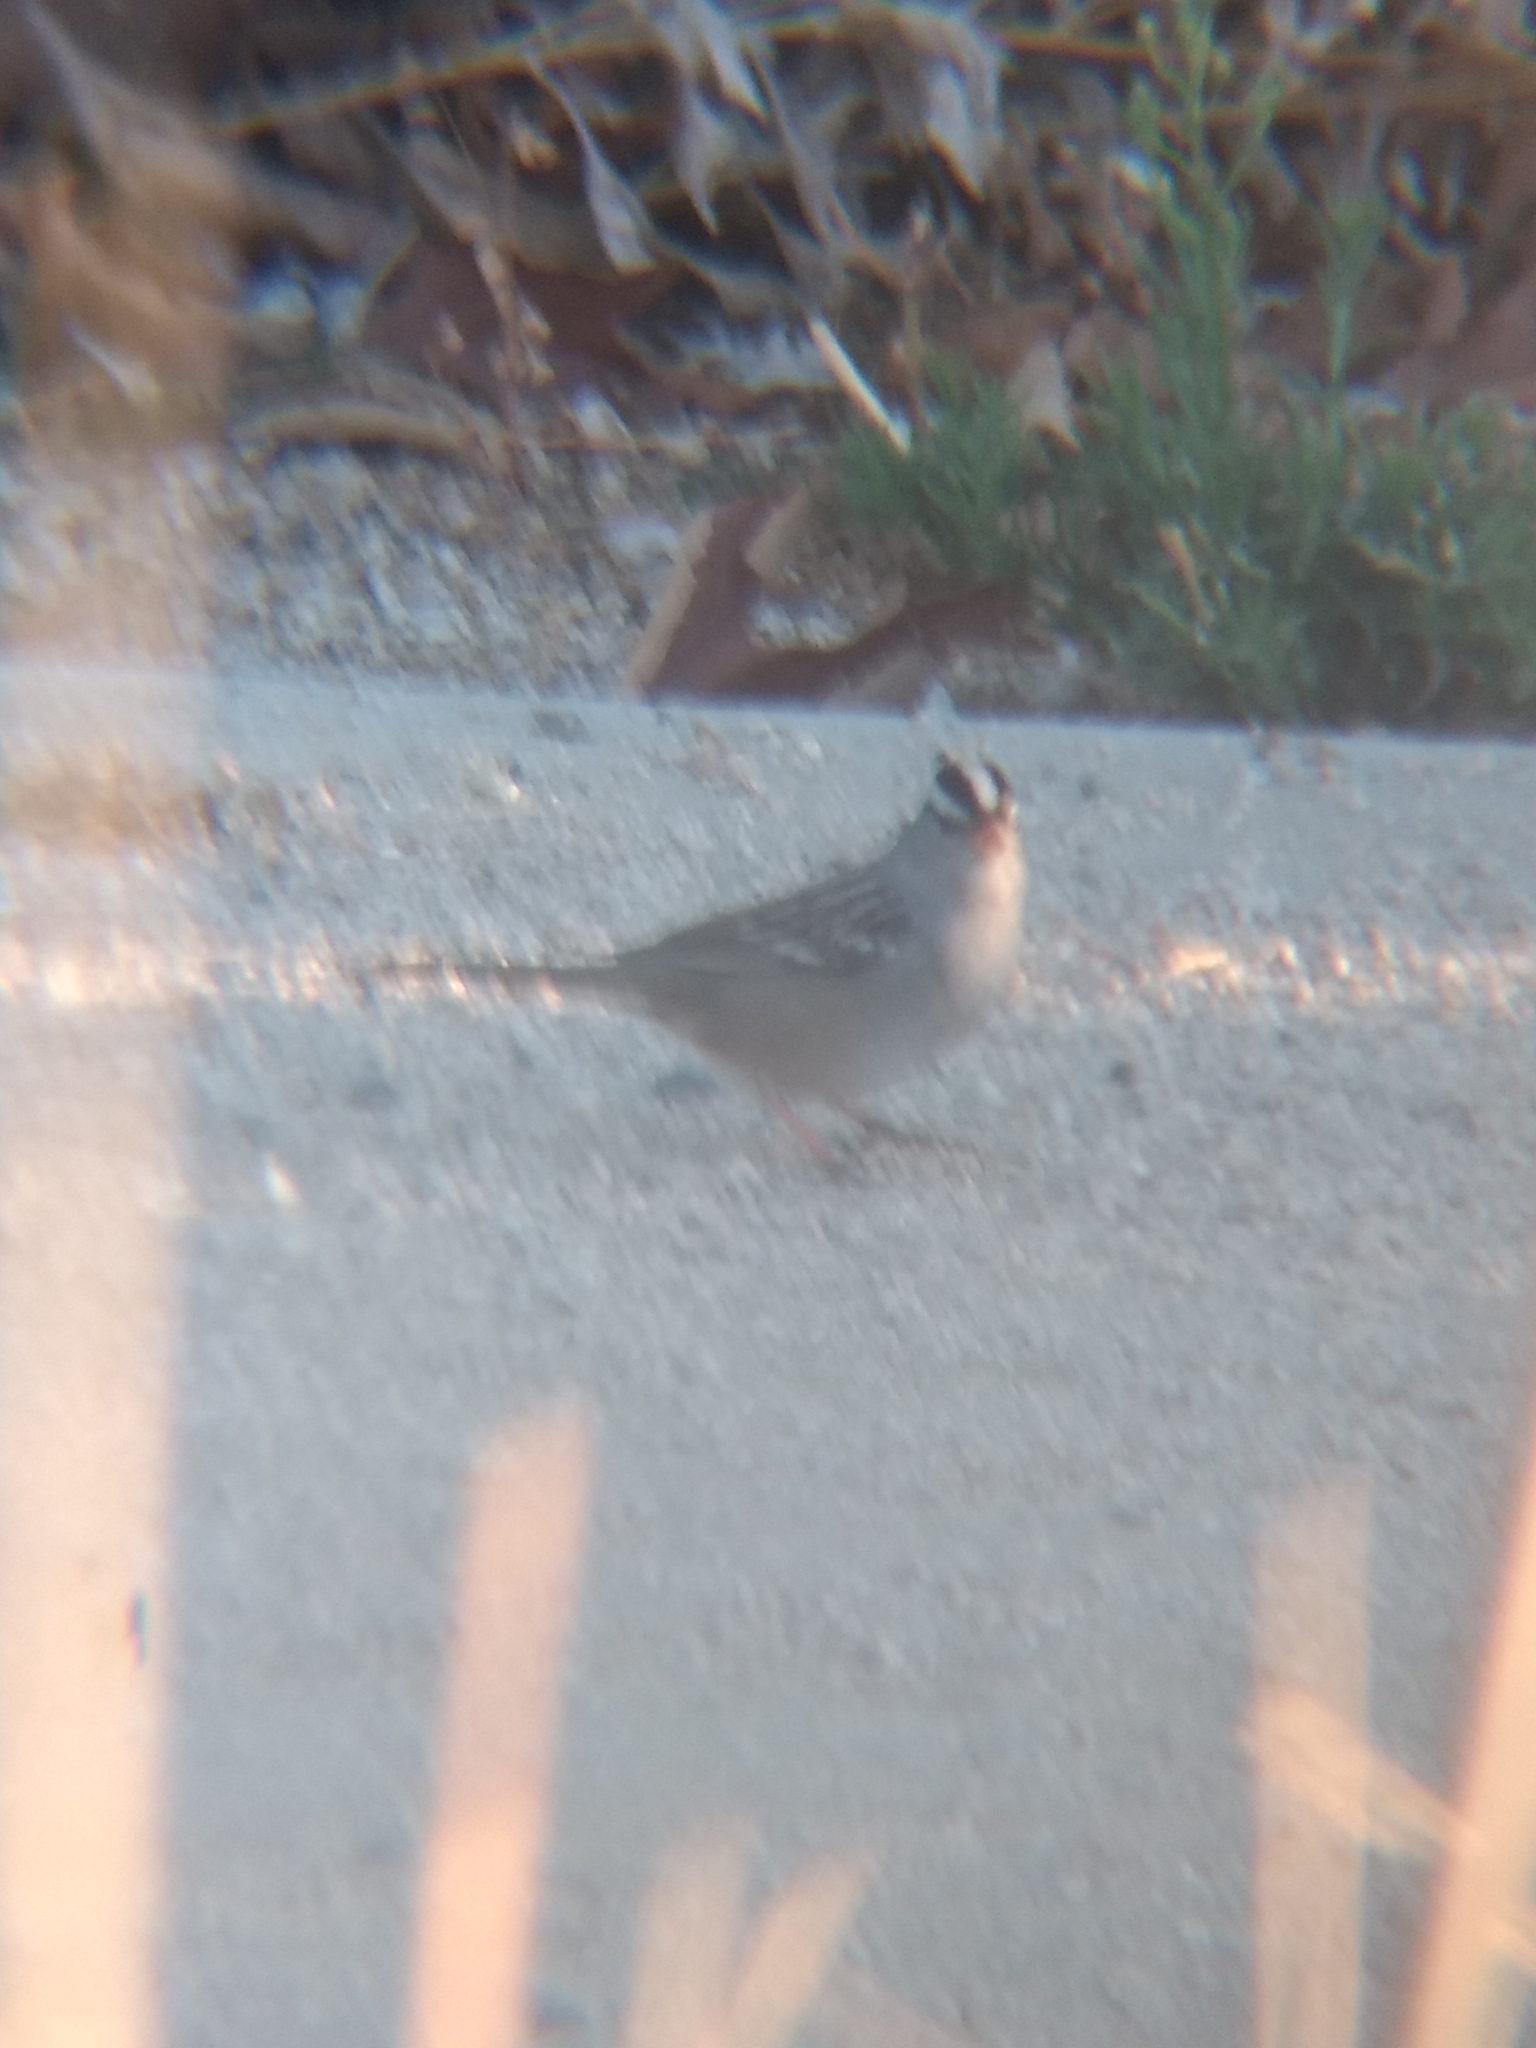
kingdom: Animalia
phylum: Chordata
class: Aves
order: Passeriformes
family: Passerellidae
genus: Zonotrichia
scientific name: Zonotrichia leucophrys
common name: White-crowned sparrow
